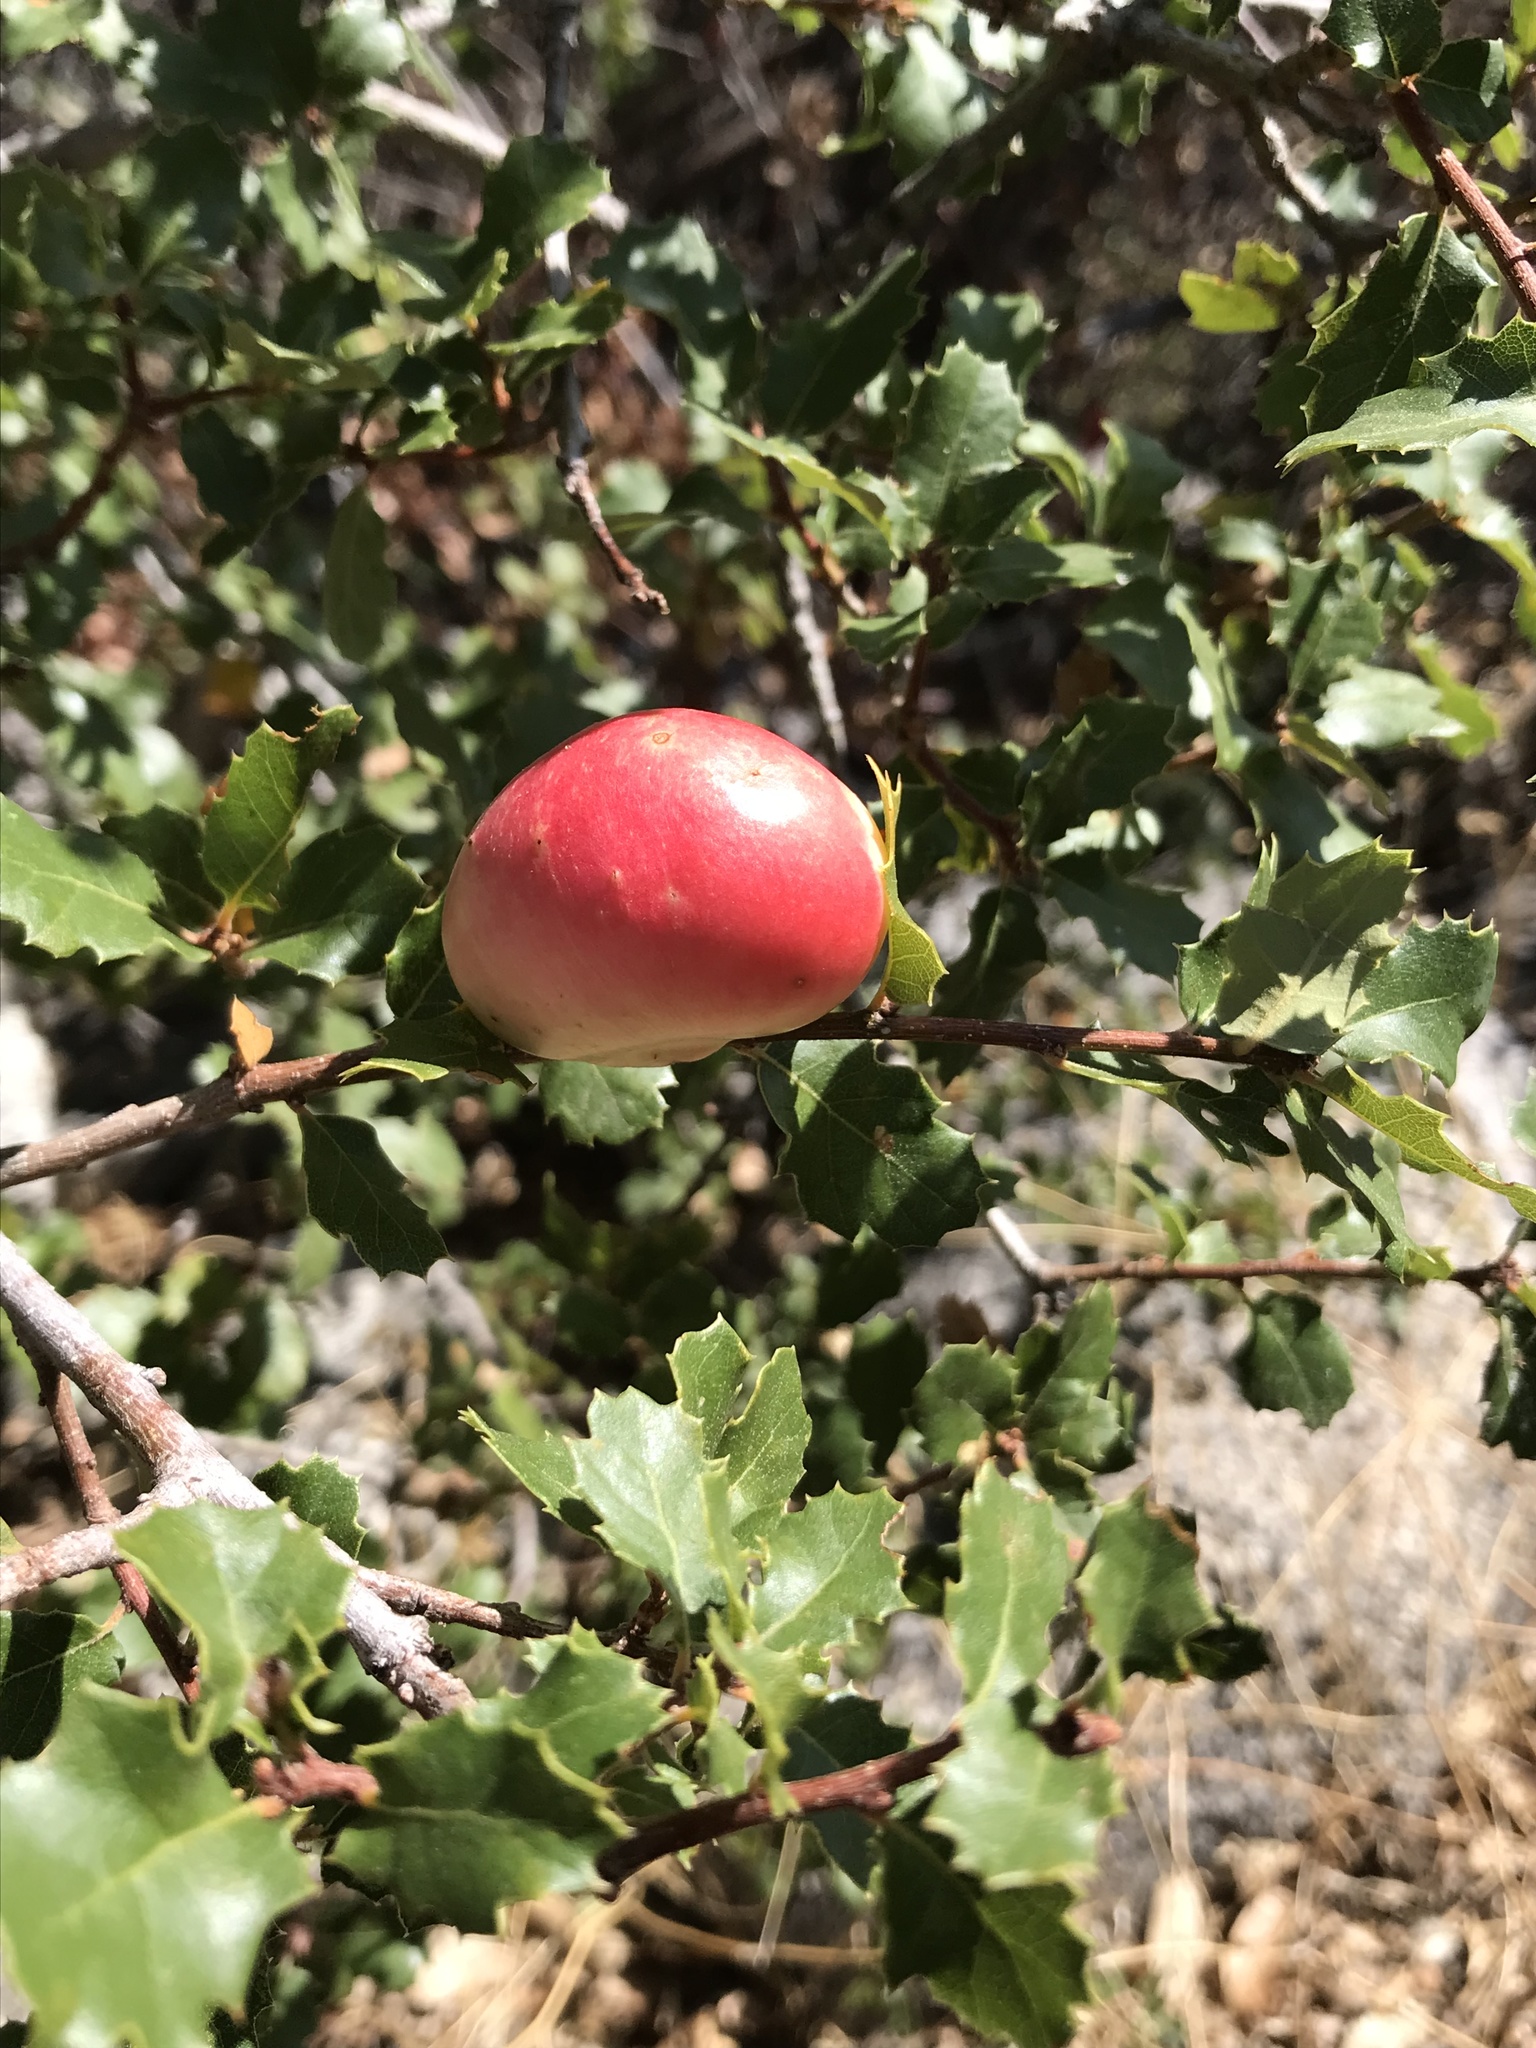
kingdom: Animalia
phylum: Arthropoda
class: Insecta
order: Hymenoptera
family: Cynipidae
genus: Andricus
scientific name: Andricus quercuscalifornicus
